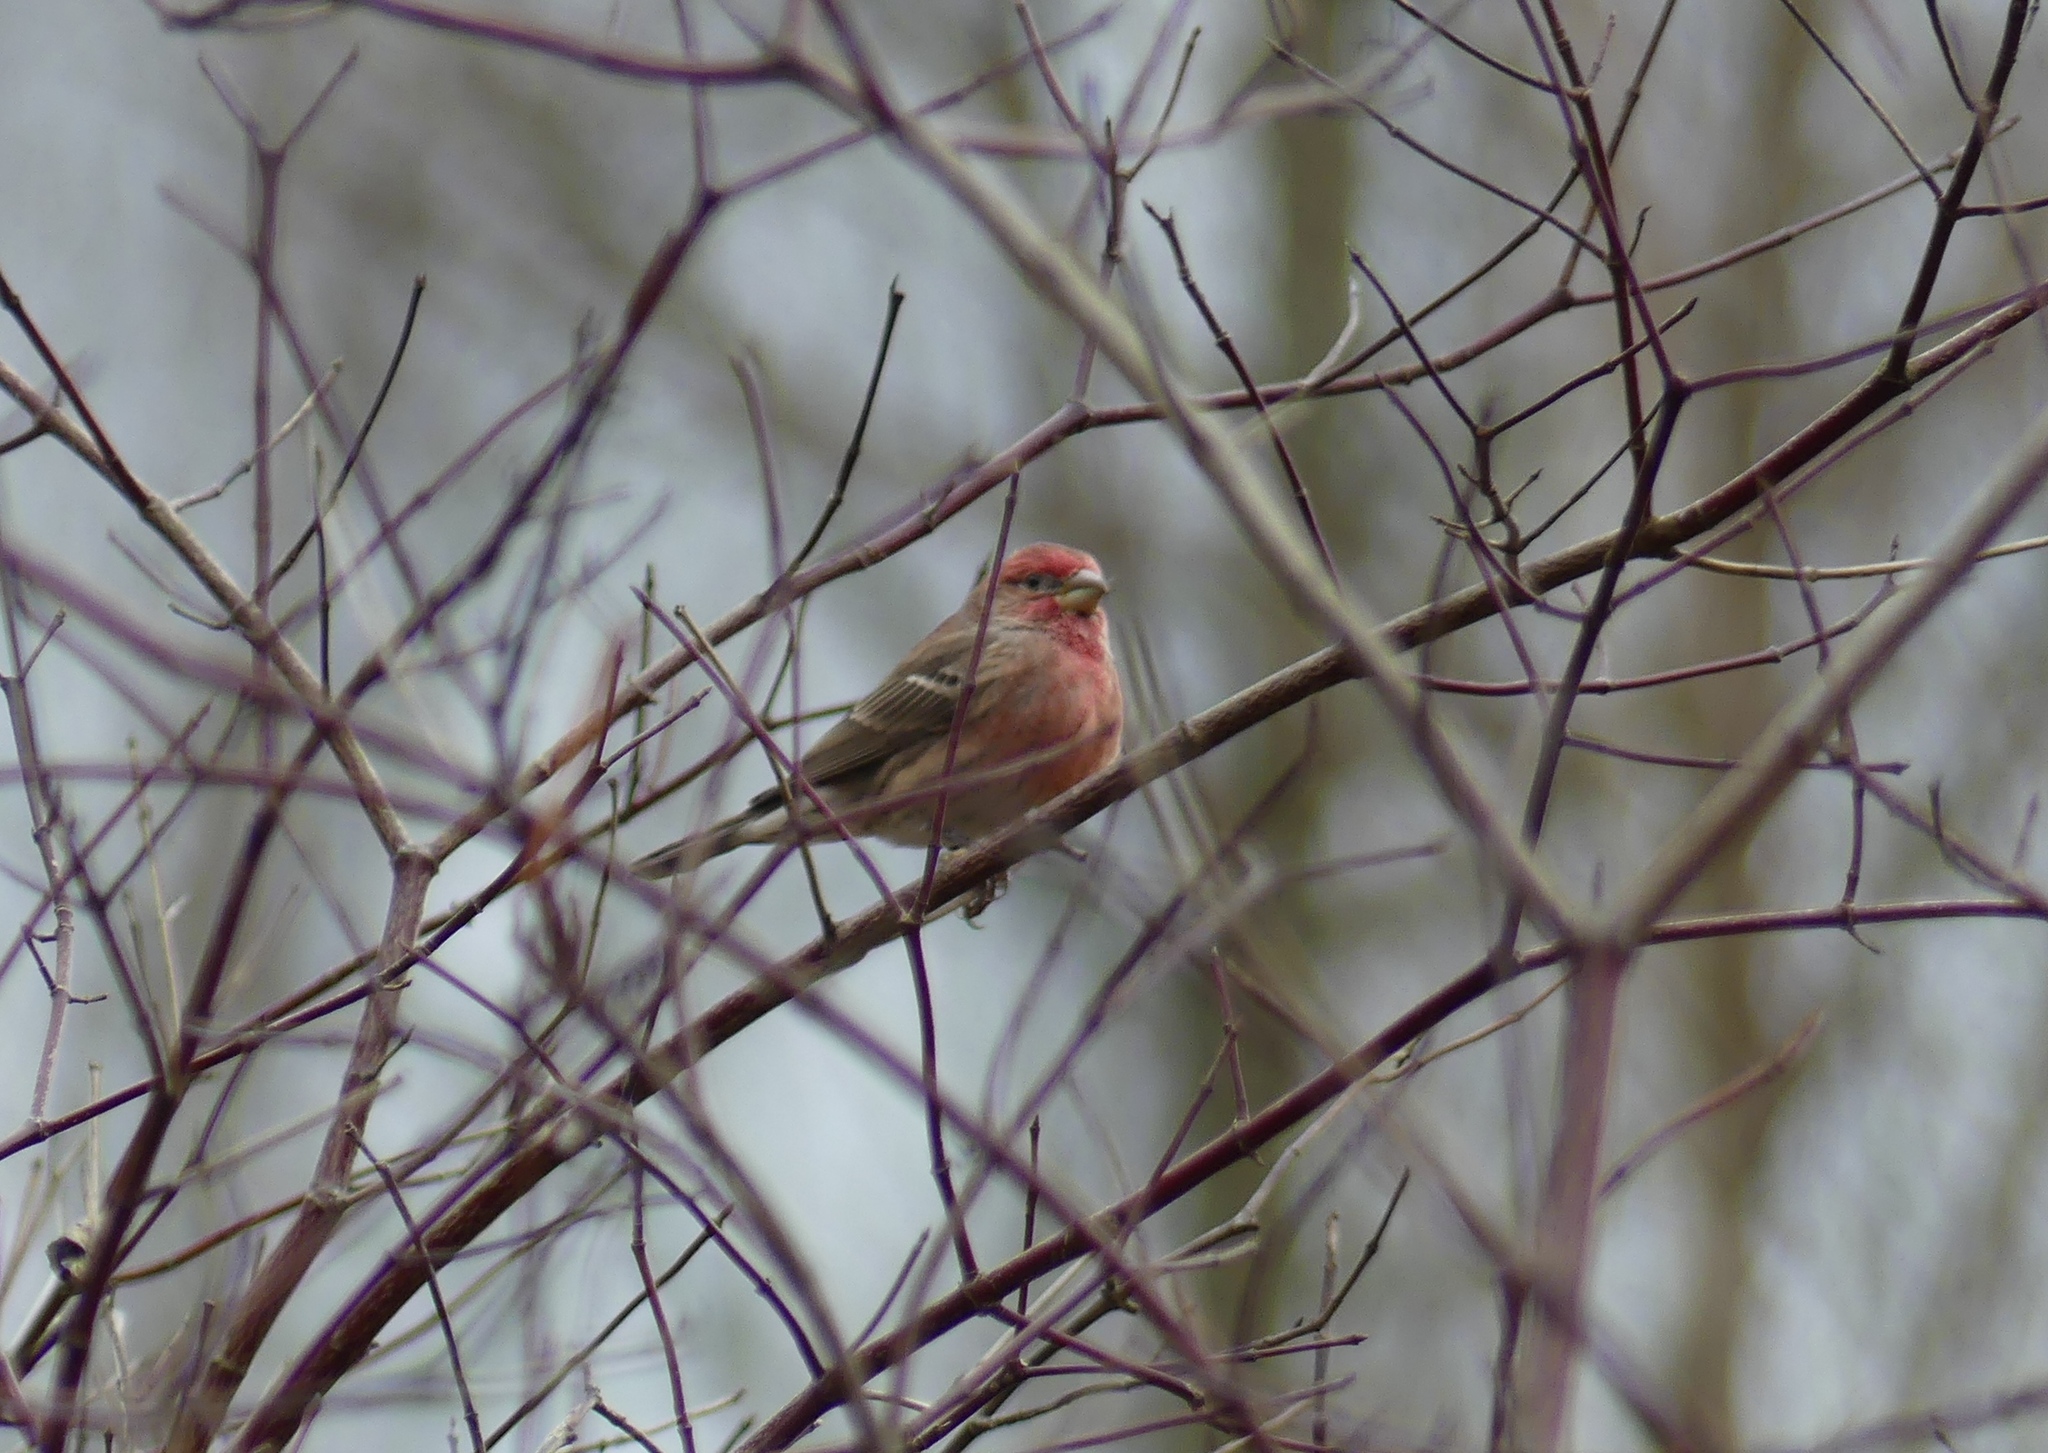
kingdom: Animalia
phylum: Chordata
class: Aves
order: Passeriformes
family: Fringillidae
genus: Haemorhous
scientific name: Haemorhous mexicanus
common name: House finch
